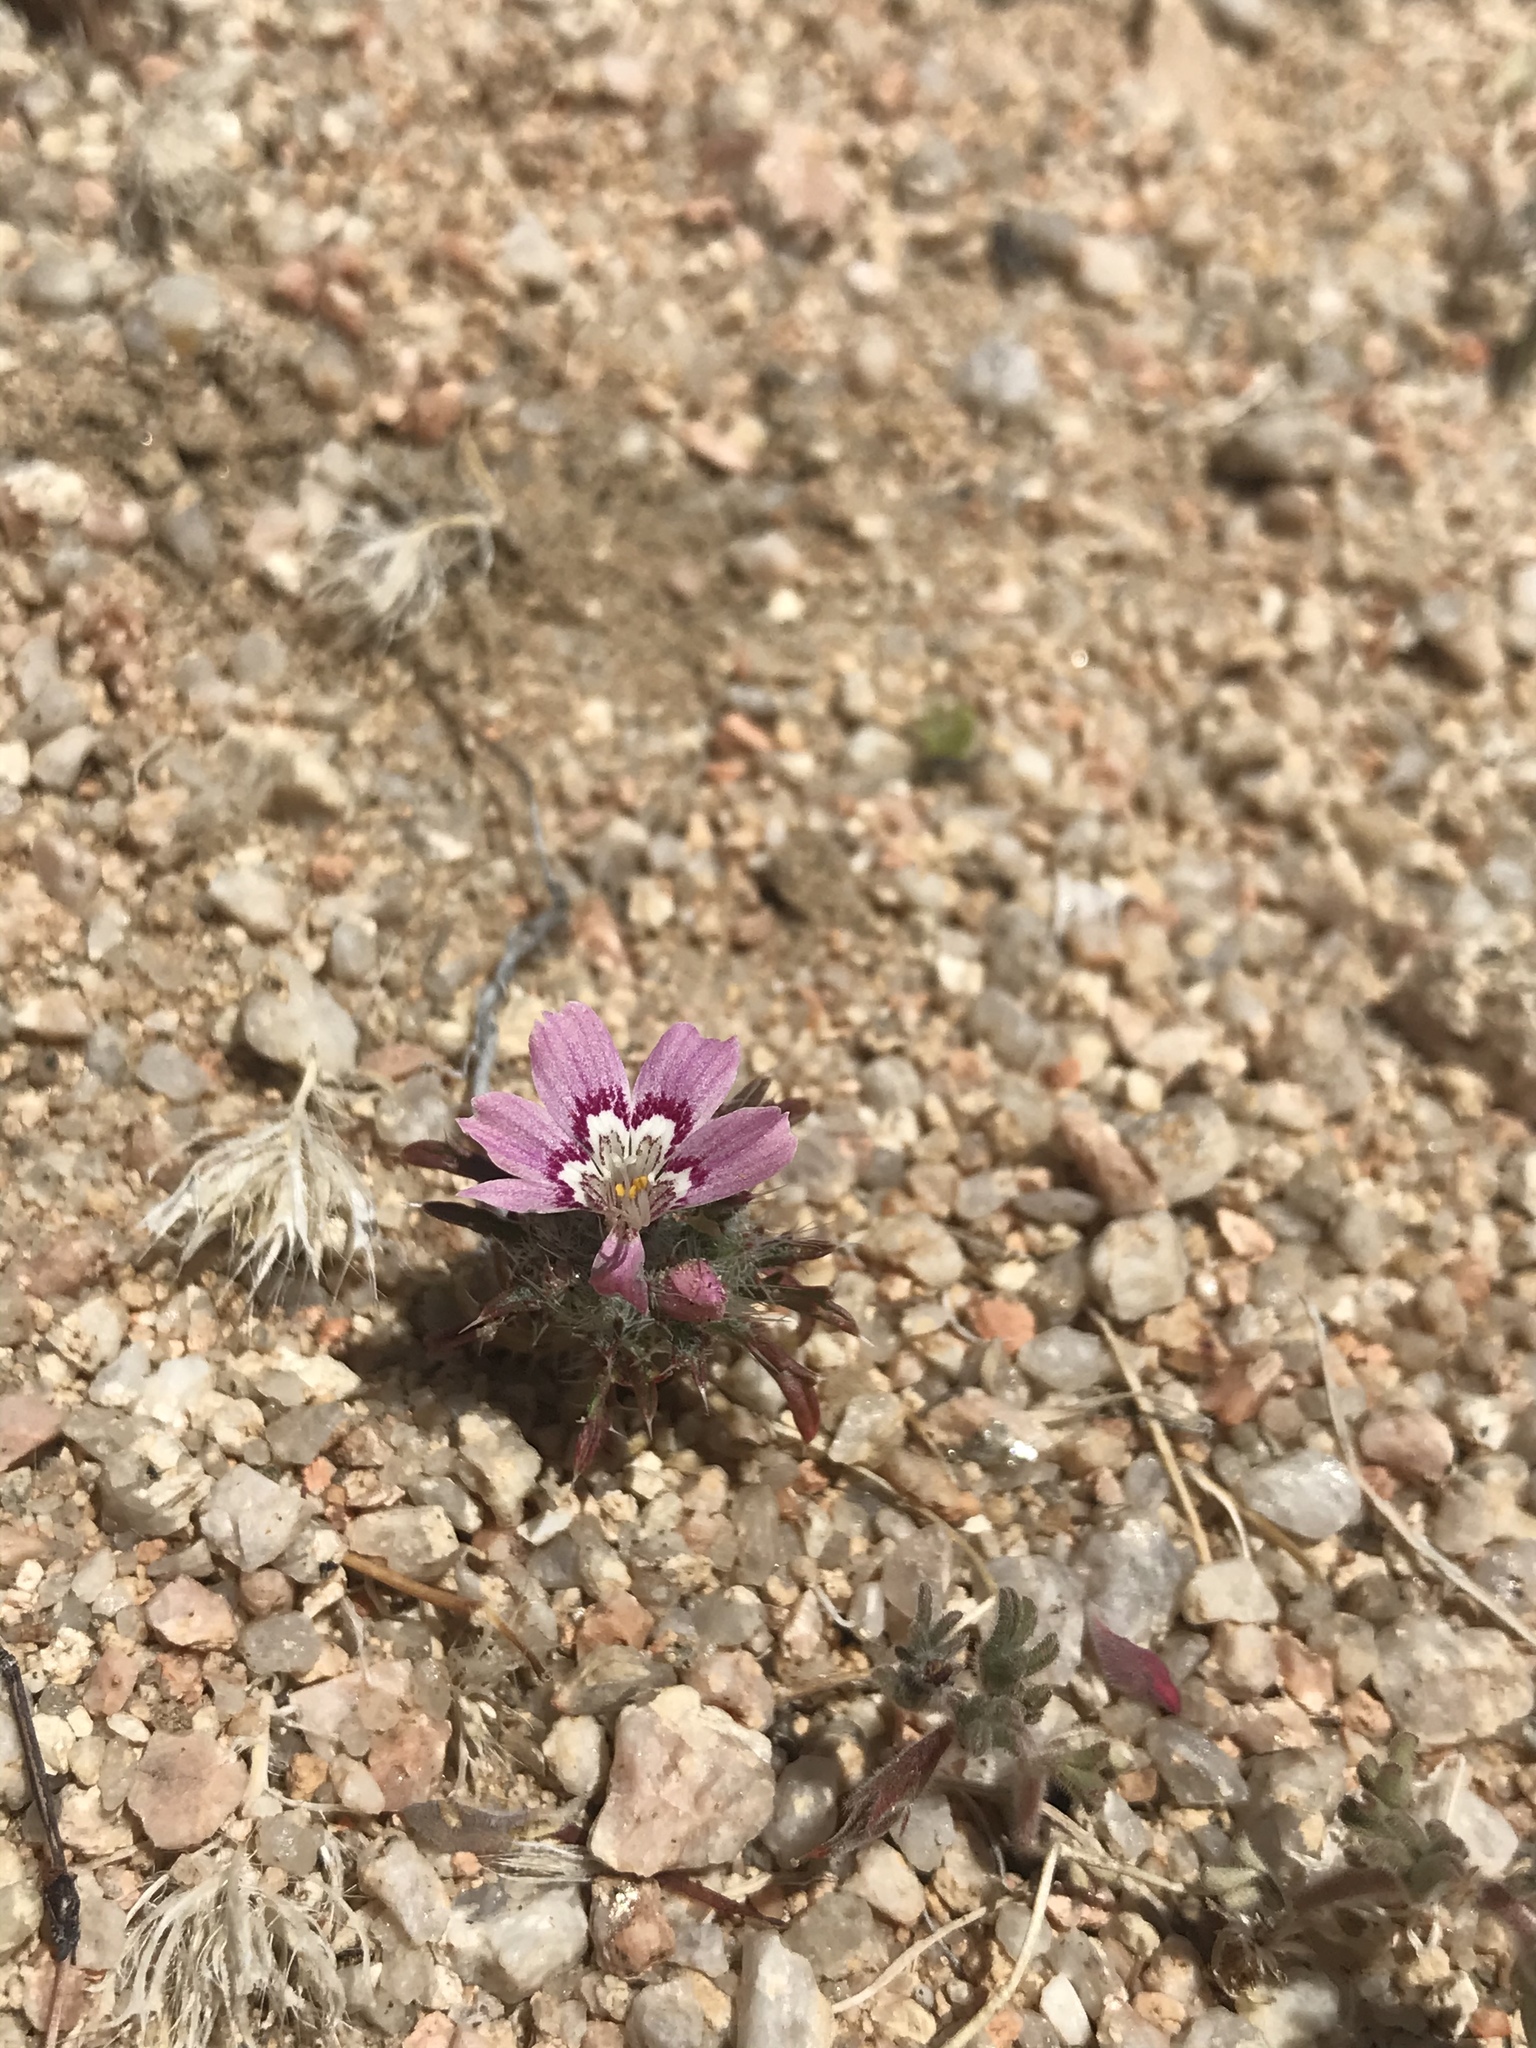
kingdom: Plantae
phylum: Tracheophyta
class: Magnoliopsida
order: Ericales
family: Polemoniaceae
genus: Loeseliastrum
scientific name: Loeseliastrum matthewsii
